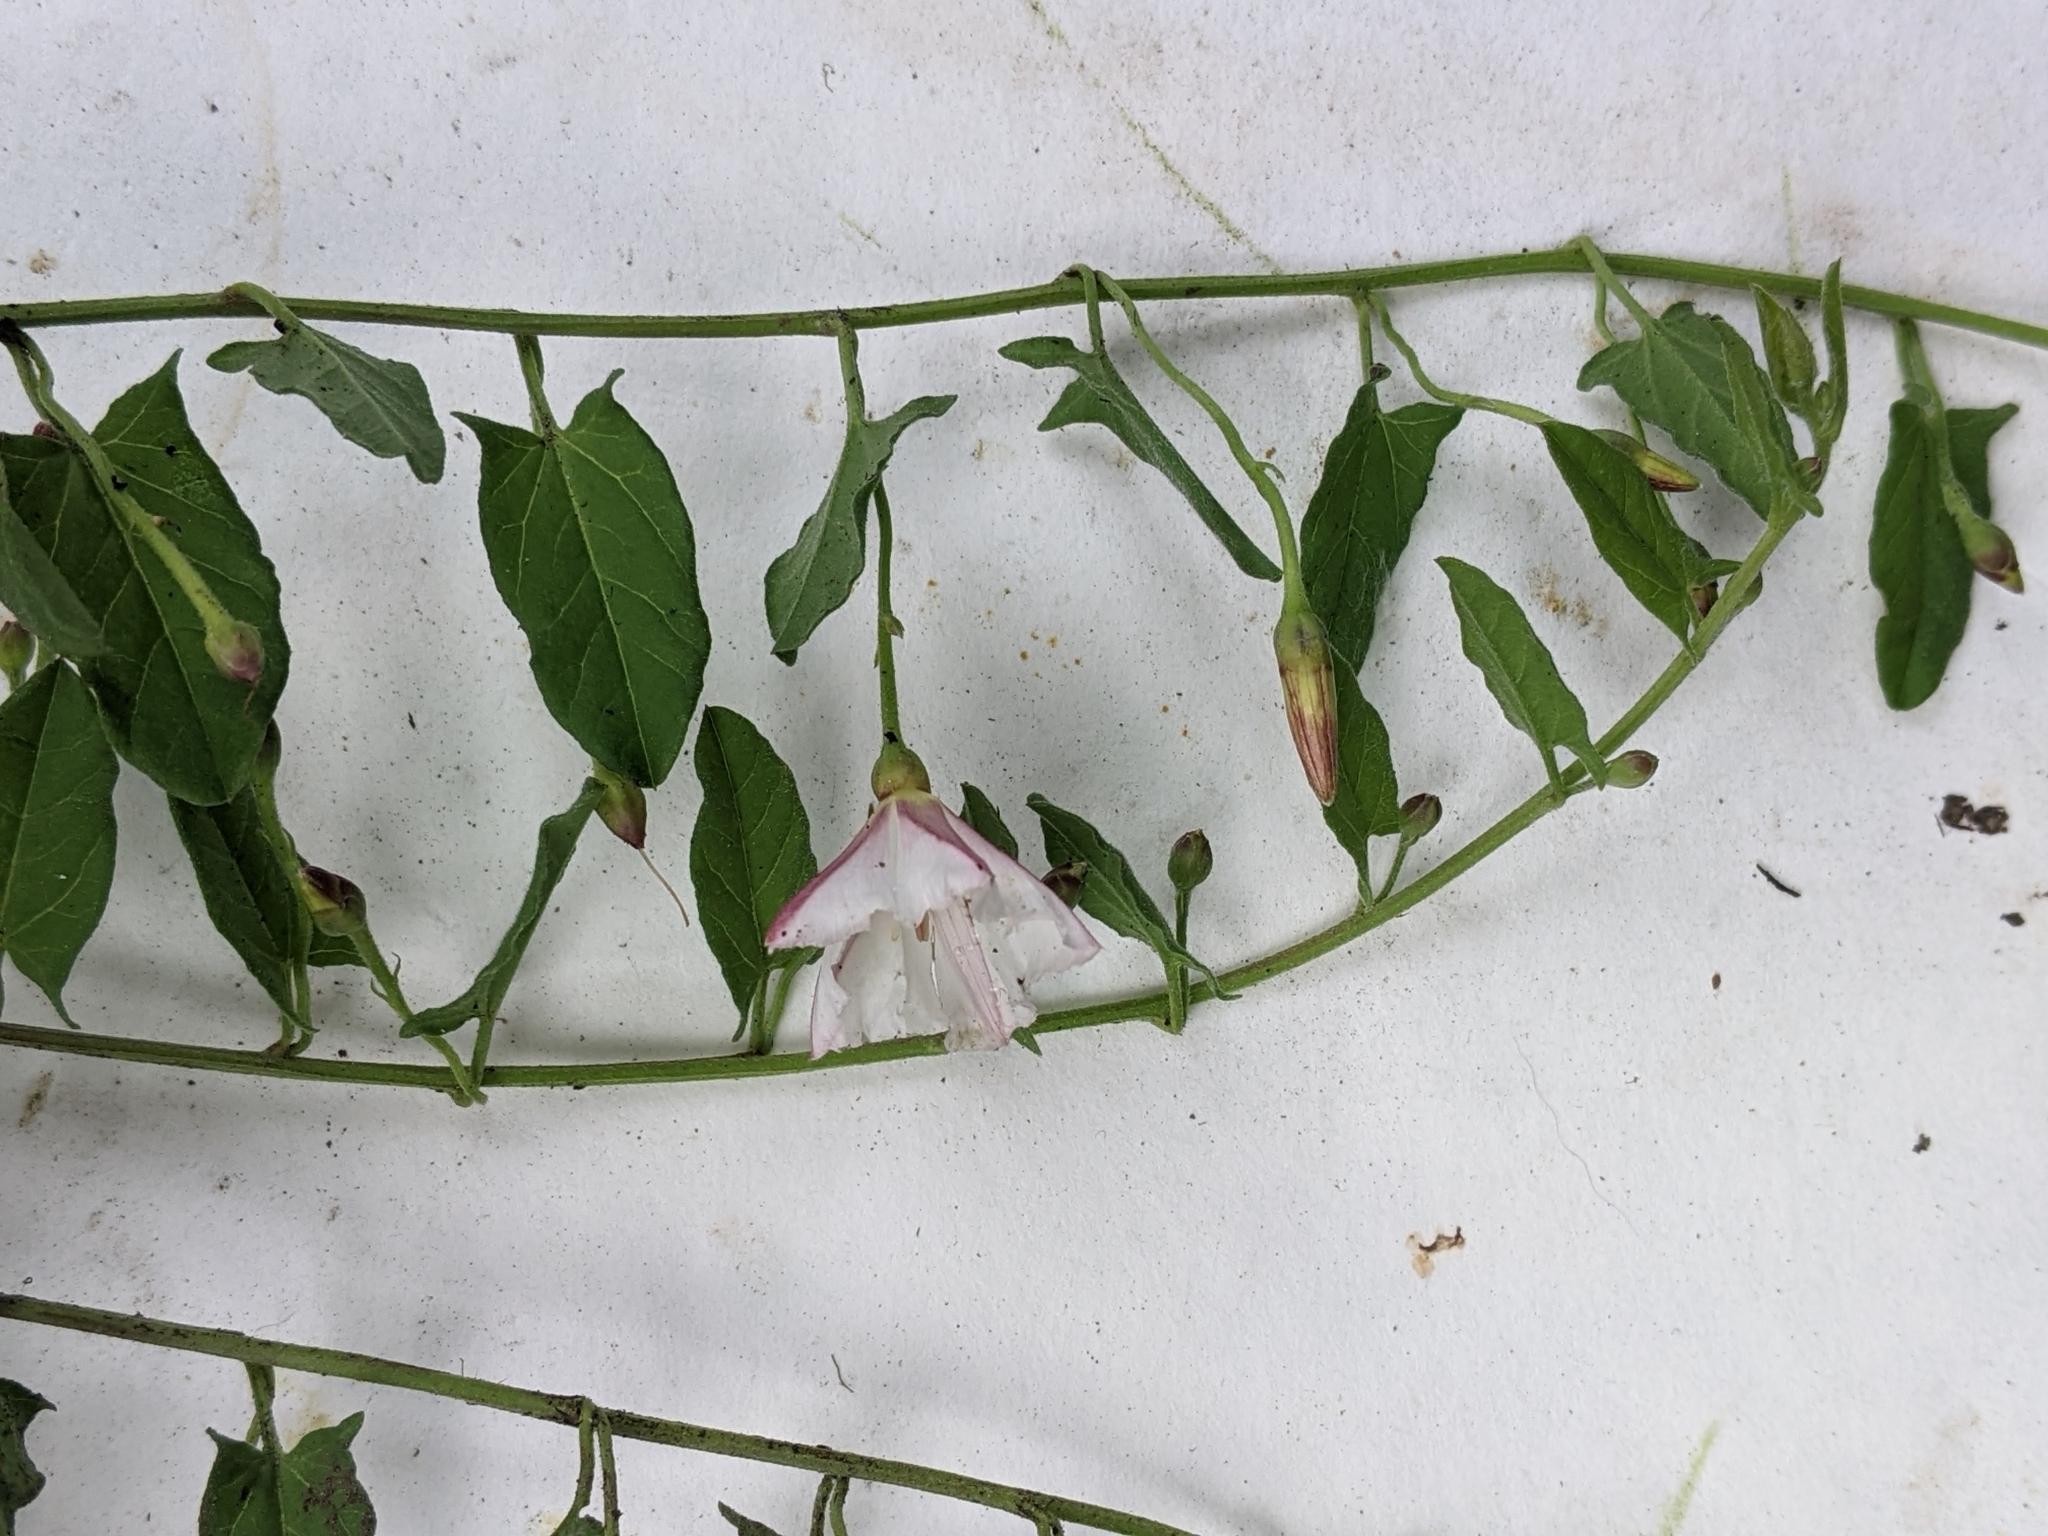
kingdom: Plantae
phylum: Tracheophyta
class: Magnoliopsida
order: Solanales
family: Convolvulaceae
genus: Convolvulus
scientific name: Convolvulus arvensis
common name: Field bindweed
